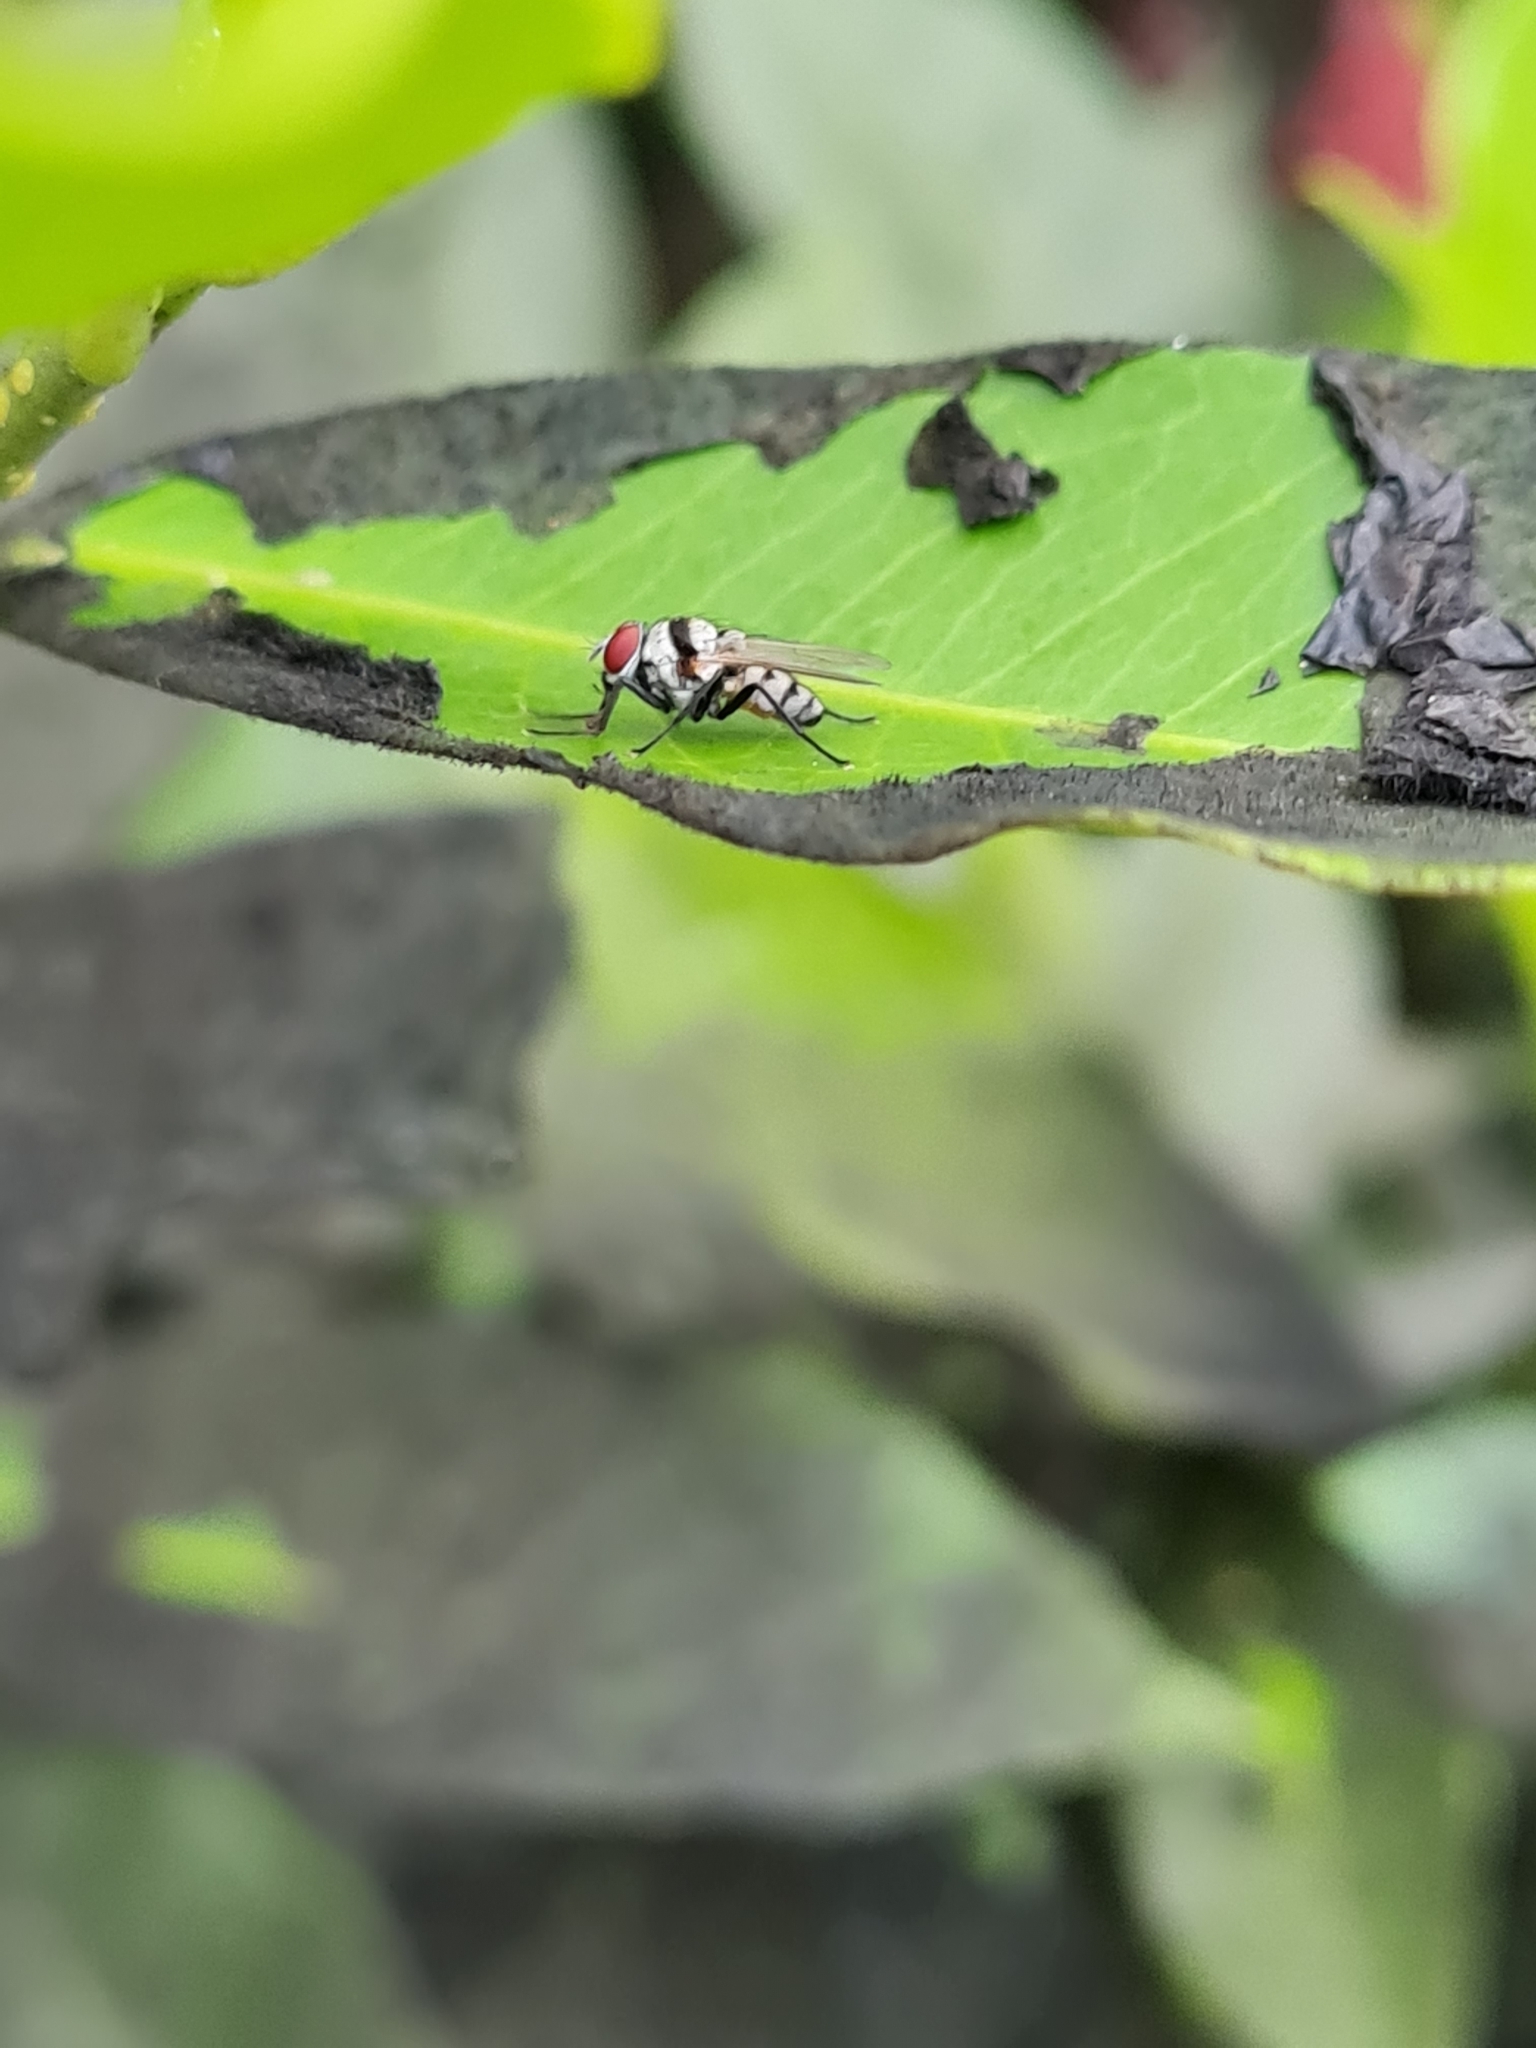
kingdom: Animalia
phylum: Arthropoda
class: Insecta
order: Diptera
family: Anthomyiidae
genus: Anthomyia
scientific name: Anthomyia illocata
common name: Fly
